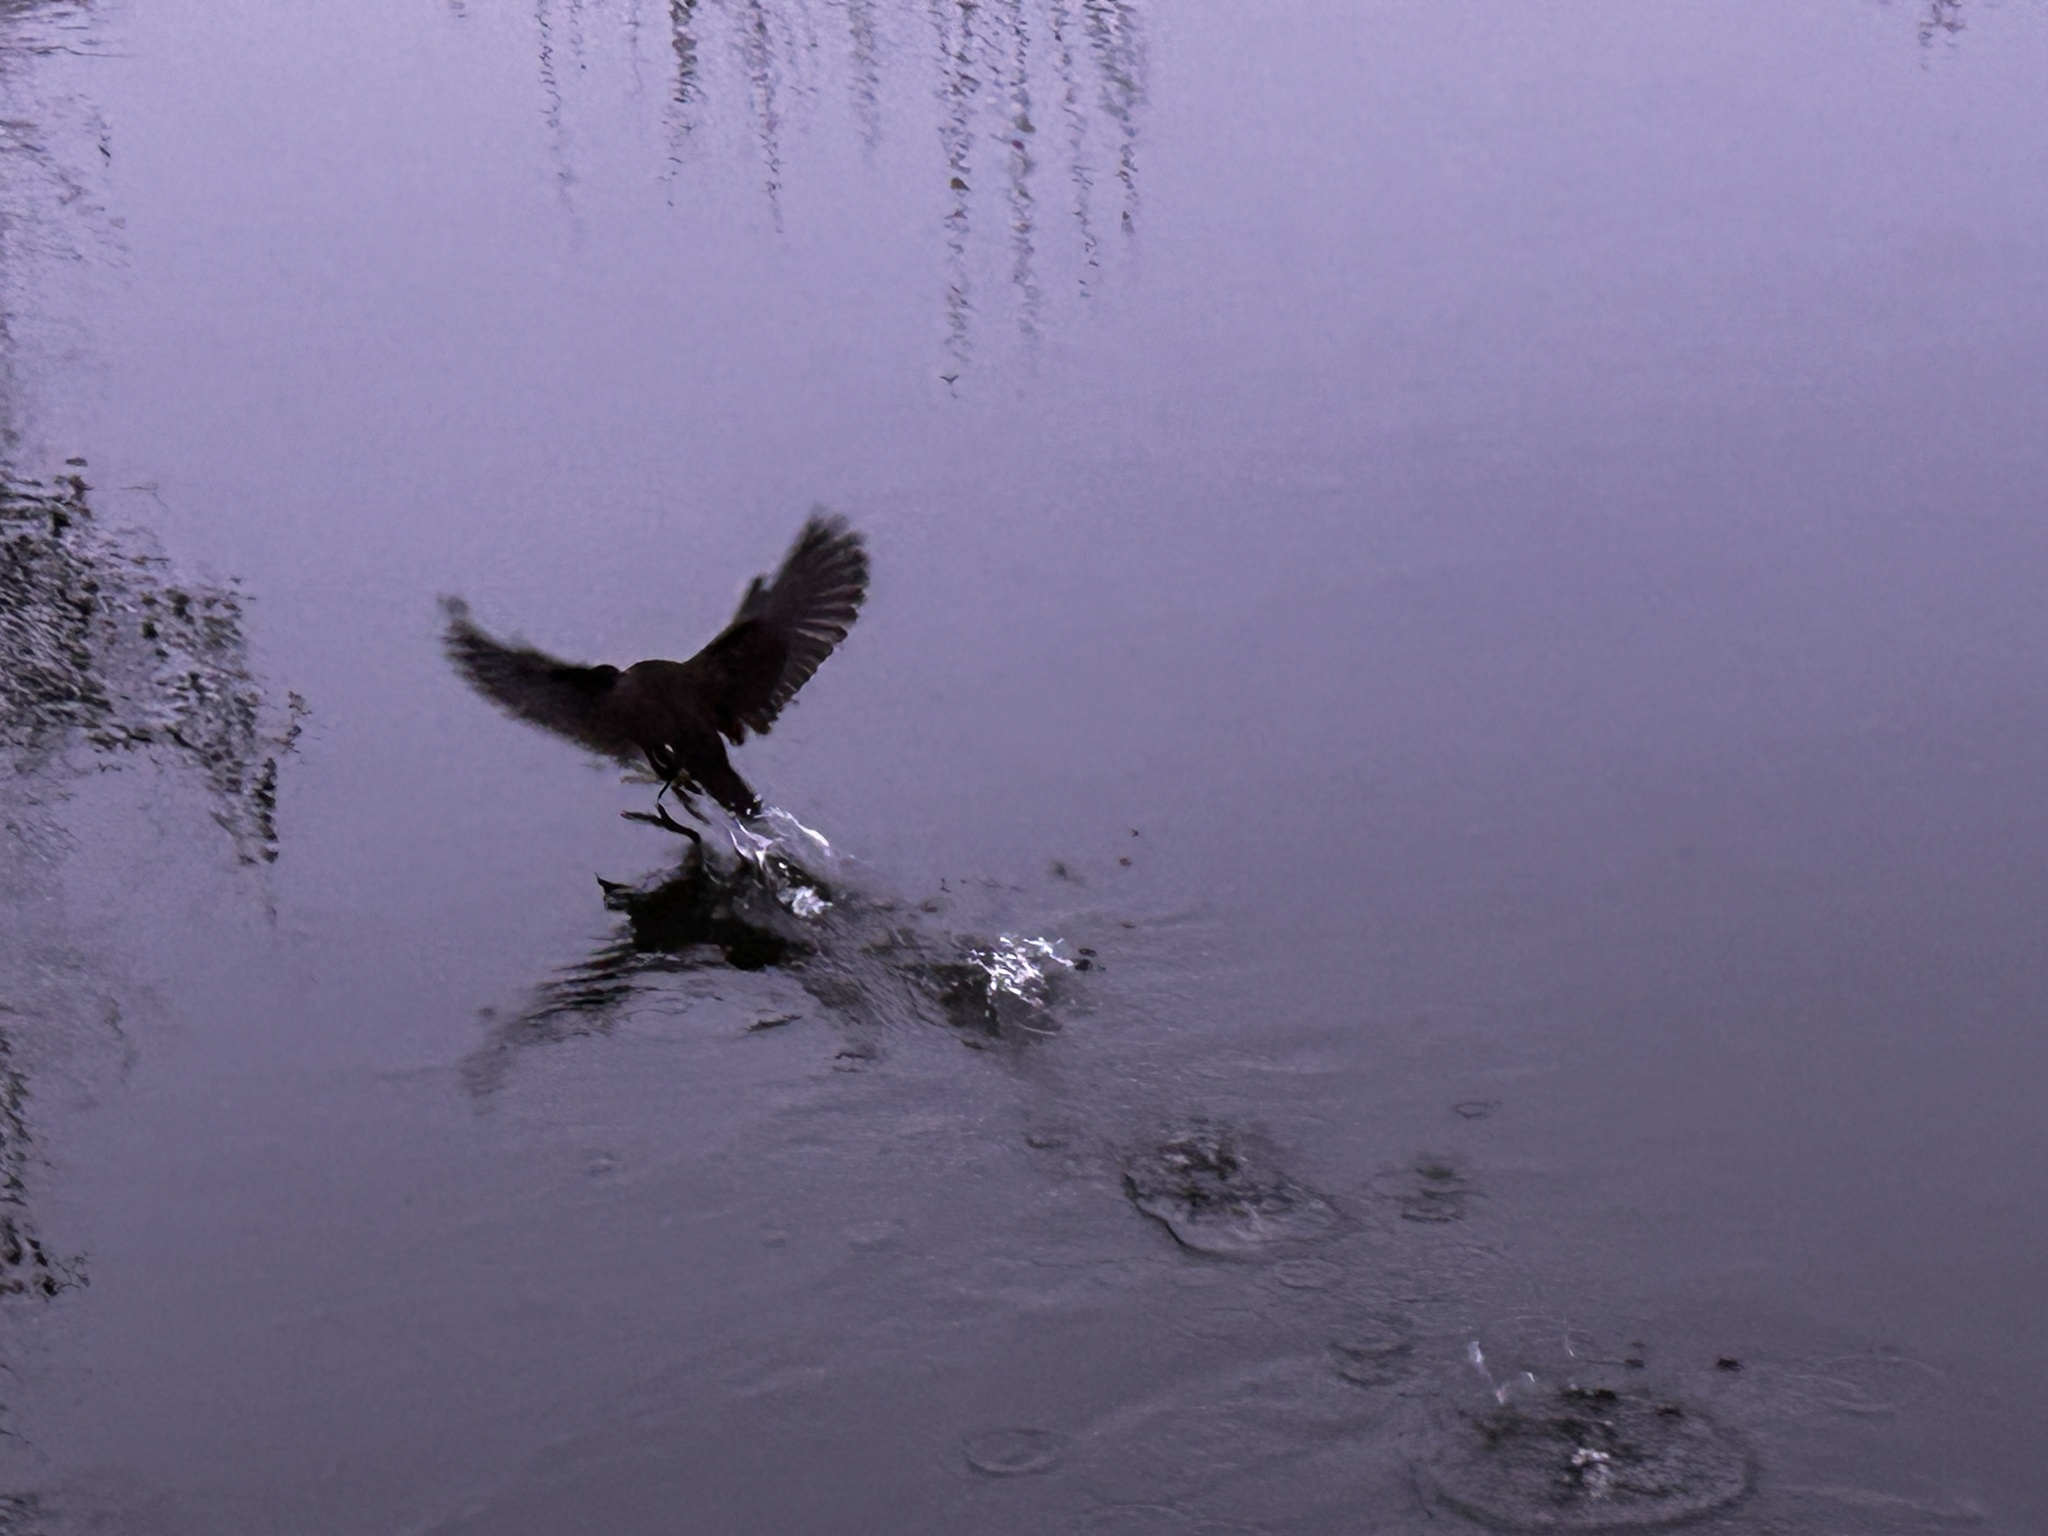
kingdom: Animalia
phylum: Chordata
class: Aves
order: Gruiformes
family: Rallidae
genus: Gallinula
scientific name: Gallinula chloropus
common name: Common moorhen
